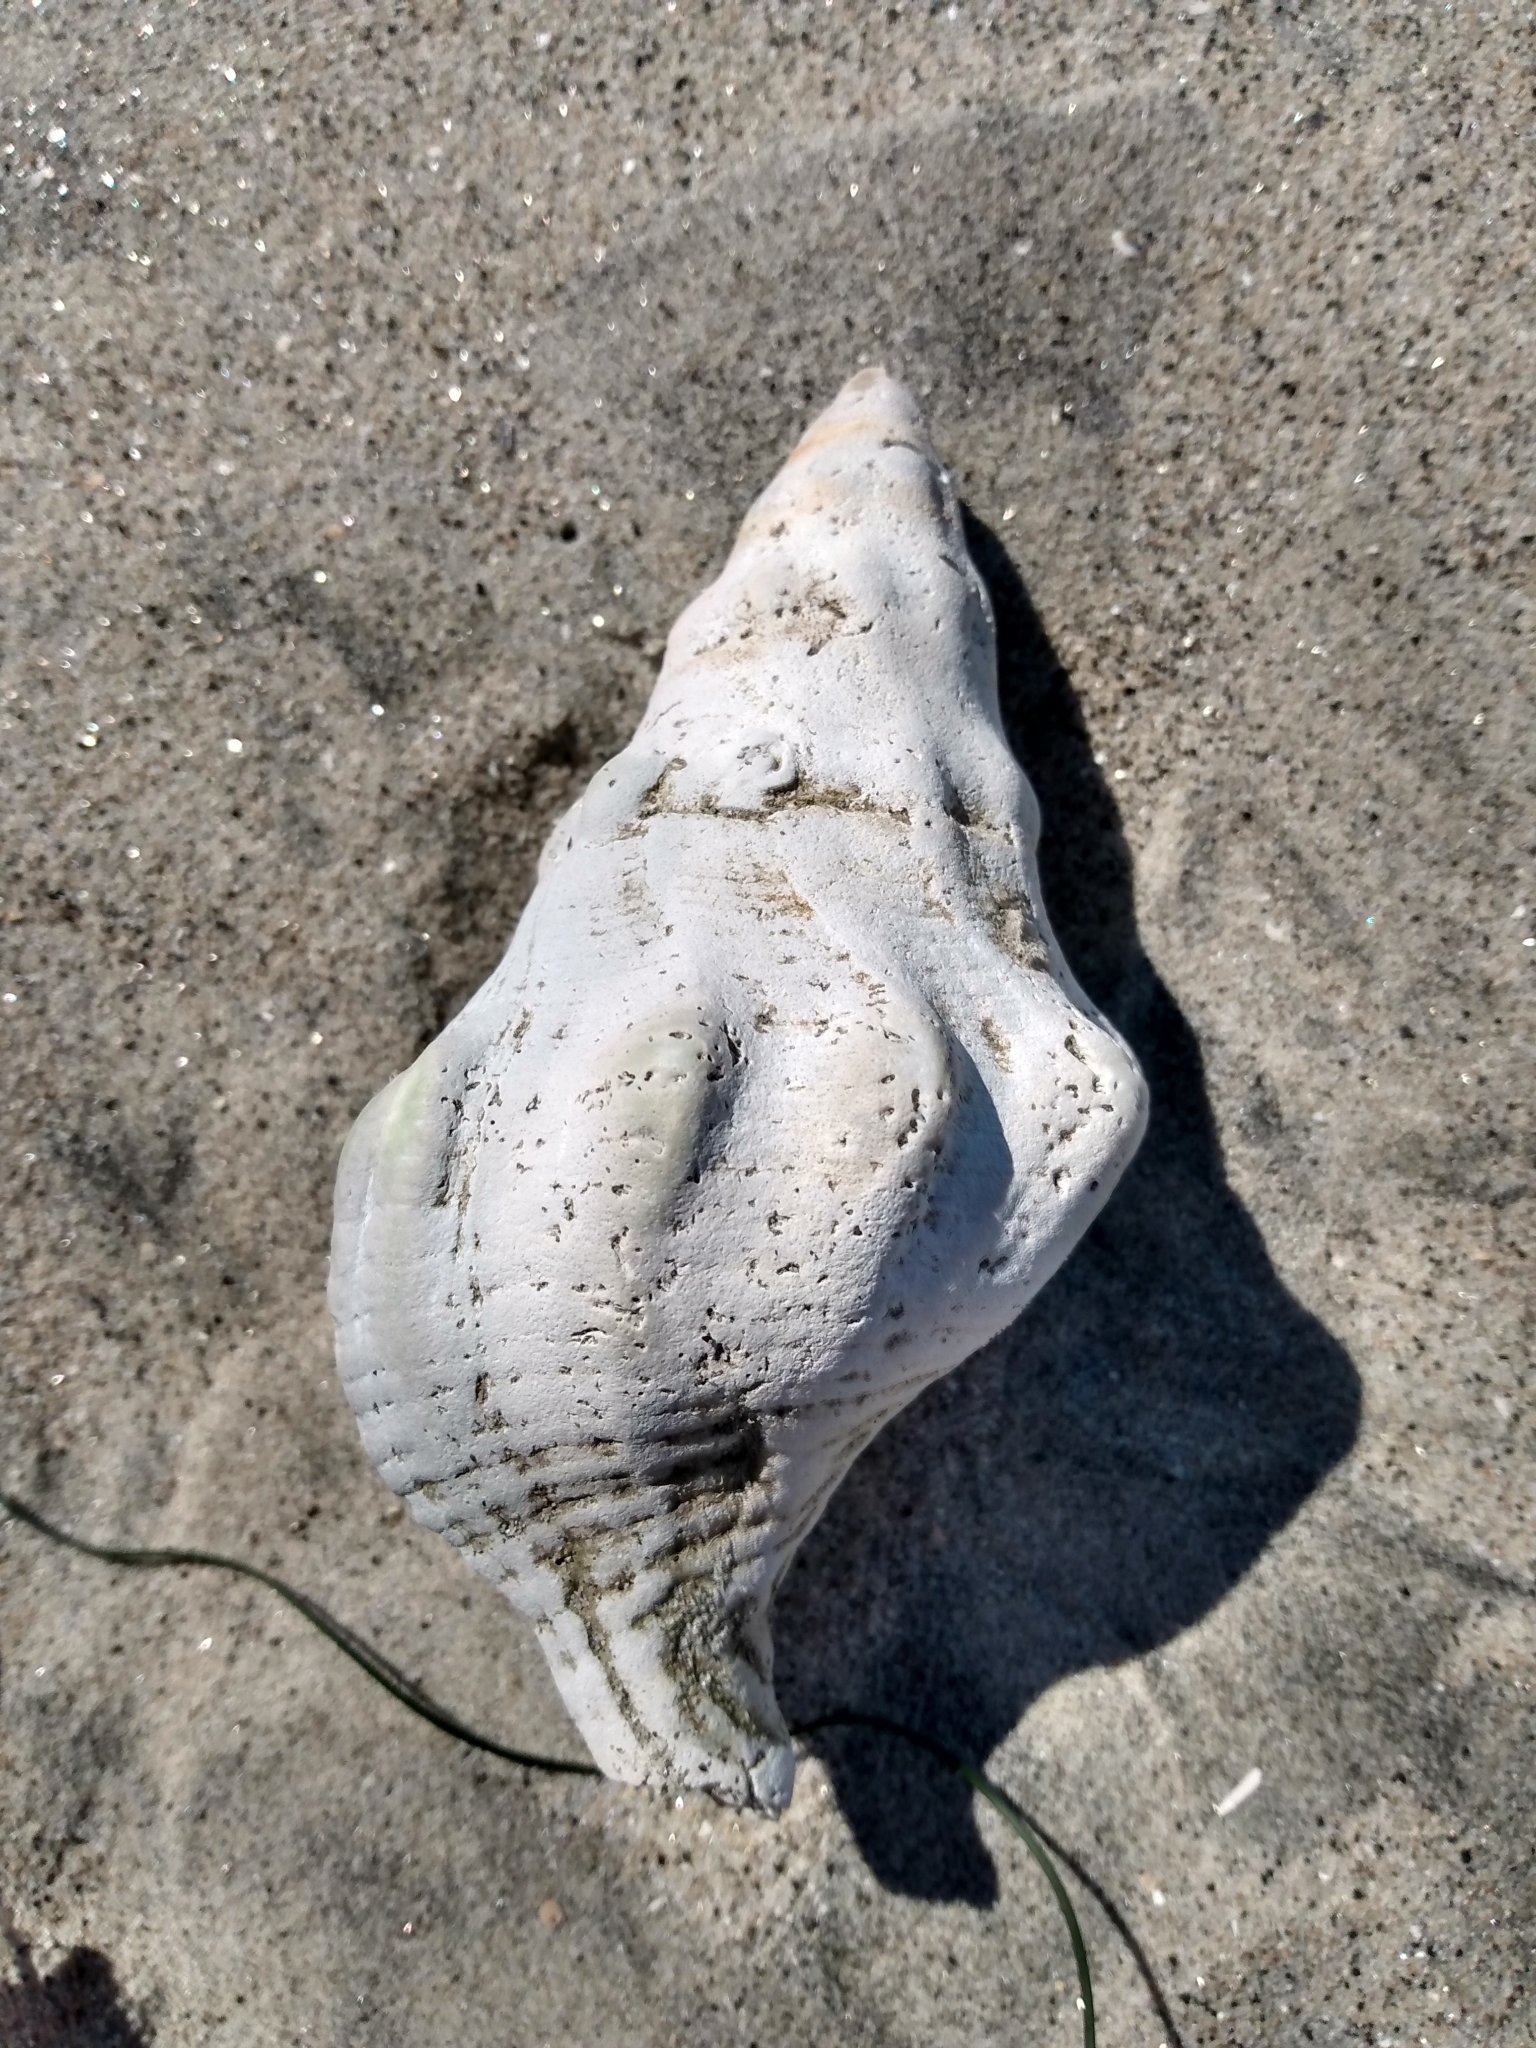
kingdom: Animalia
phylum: Mollusca
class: Gastropoda
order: Neogastropoda
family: Austrosiphonidae
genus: Kelletia
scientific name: Kelletia kelletii
